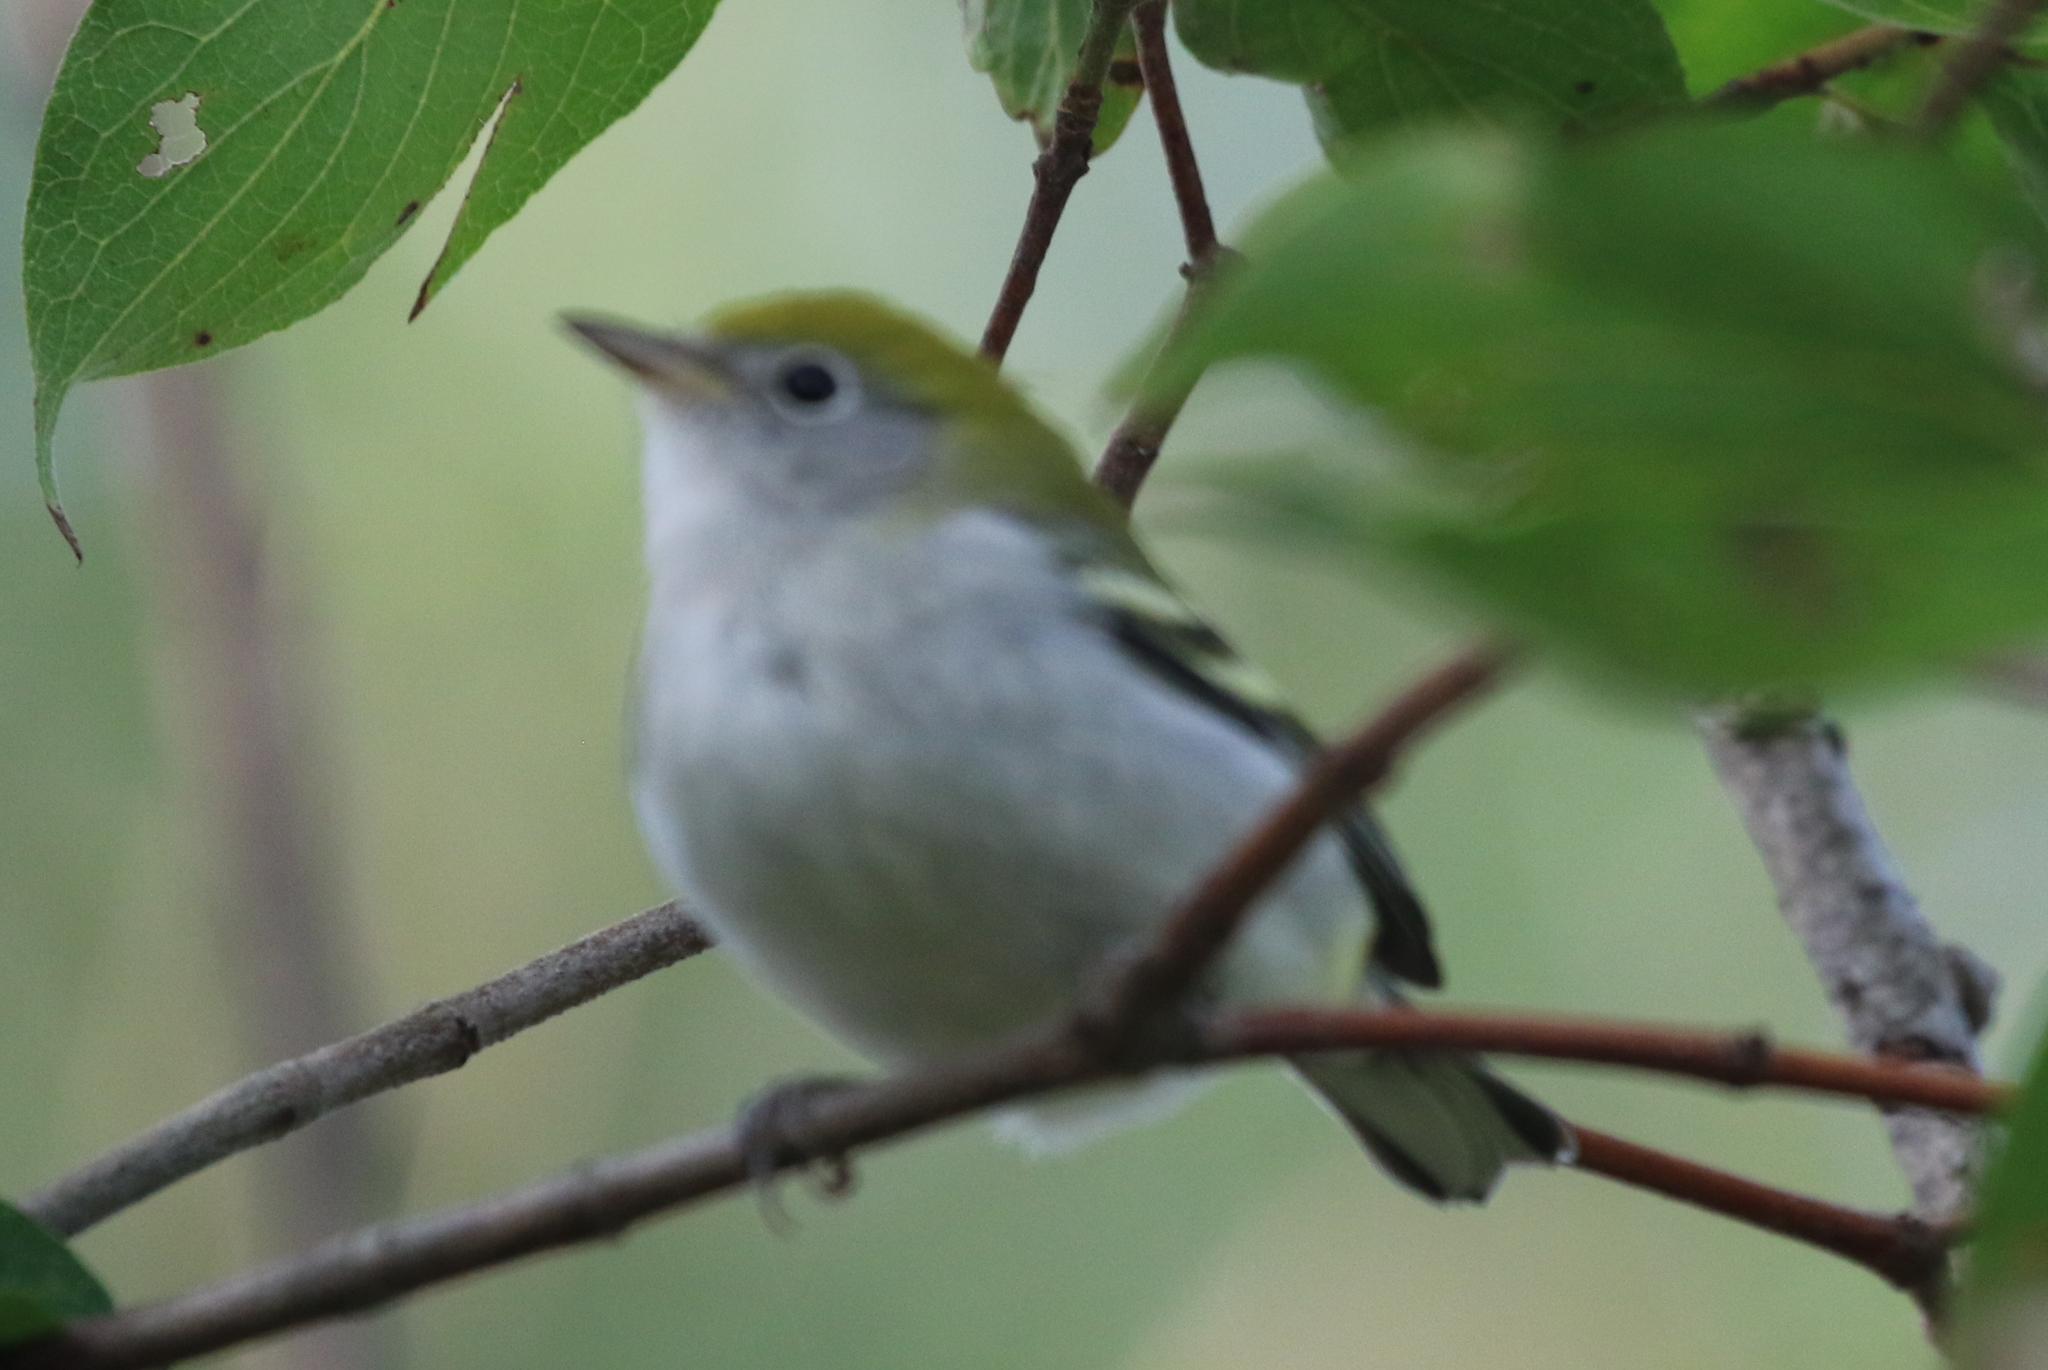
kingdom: Animalia
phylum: Chordata
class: Aves
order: Passeriformes
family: Parulidae
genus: Setophaga
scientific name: Setophaga pensylvanica
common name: Chestnut-sided warbler
